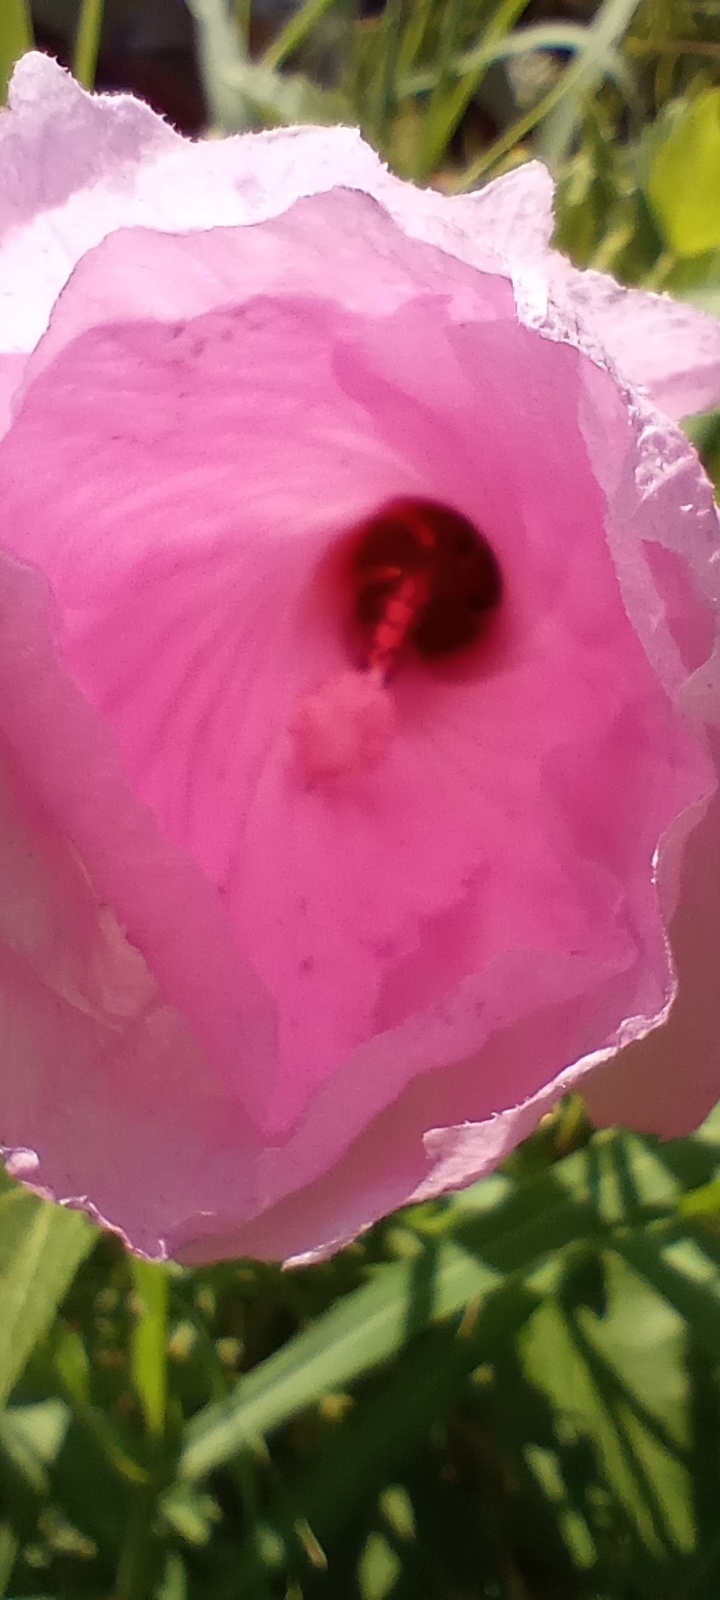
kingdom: Plantae
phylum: Tracheophyta
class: Magnoliopsida
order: Malvales
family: Malvaceae
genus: Hibiscus
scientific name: Hibiscus striatus
